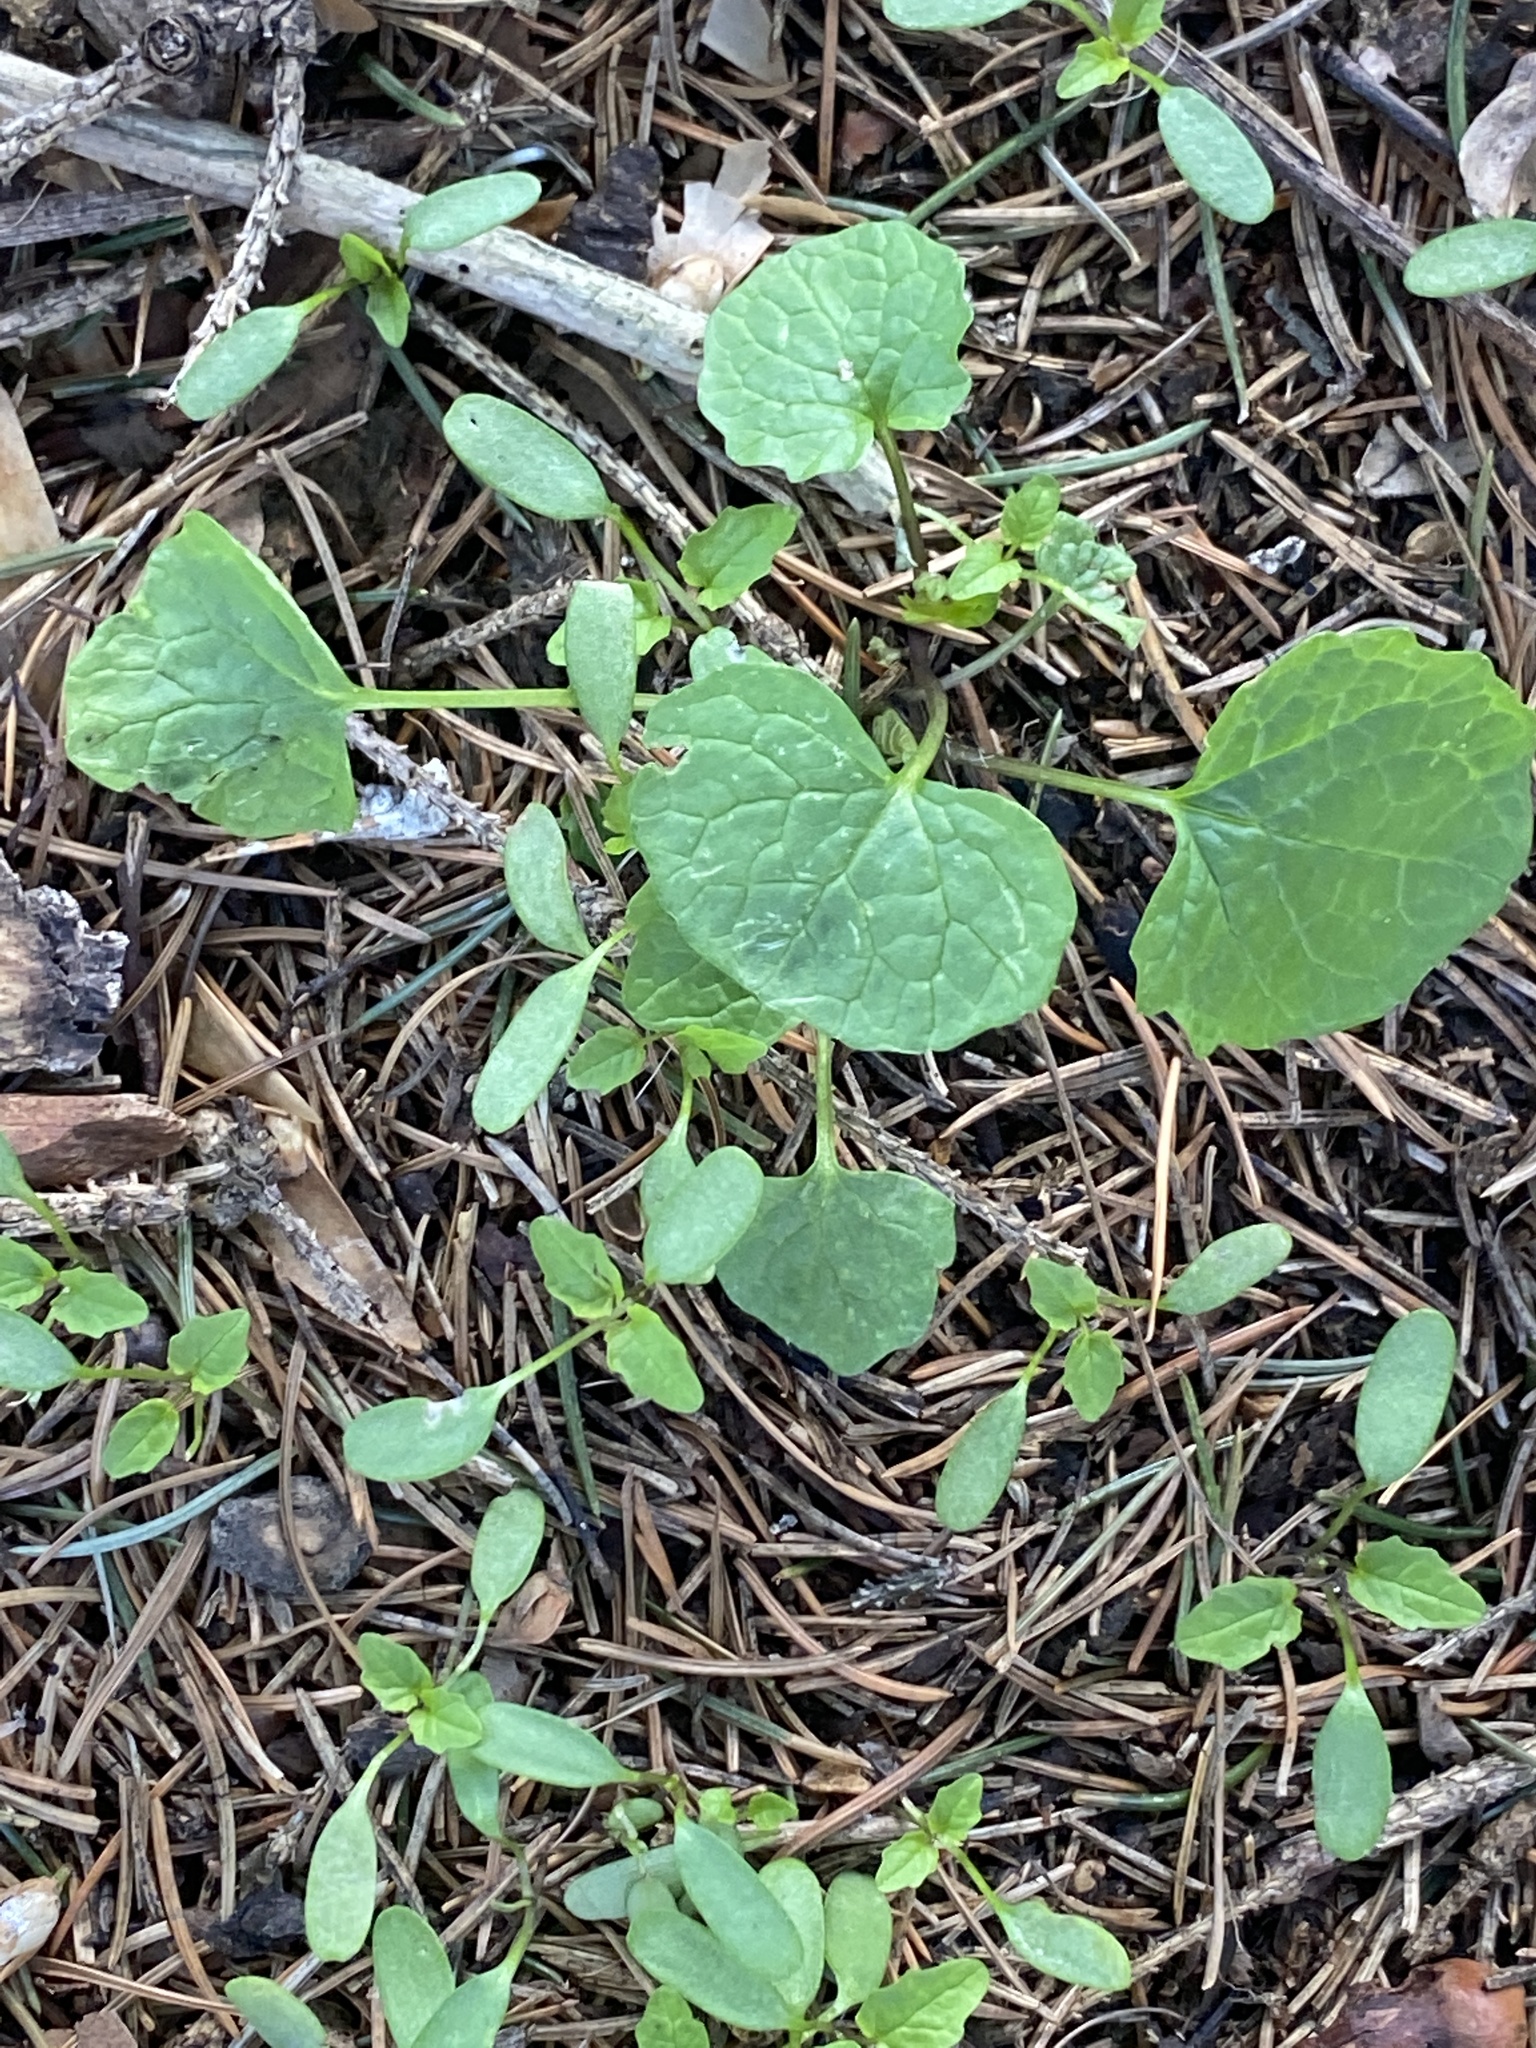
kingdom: Plantae
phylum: Tracheophyta
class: Magnoliopsida
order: Brassicales
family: Brassicaceae
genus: Alliaria
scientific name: Alliaria petiolata
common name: Garlic mustard
